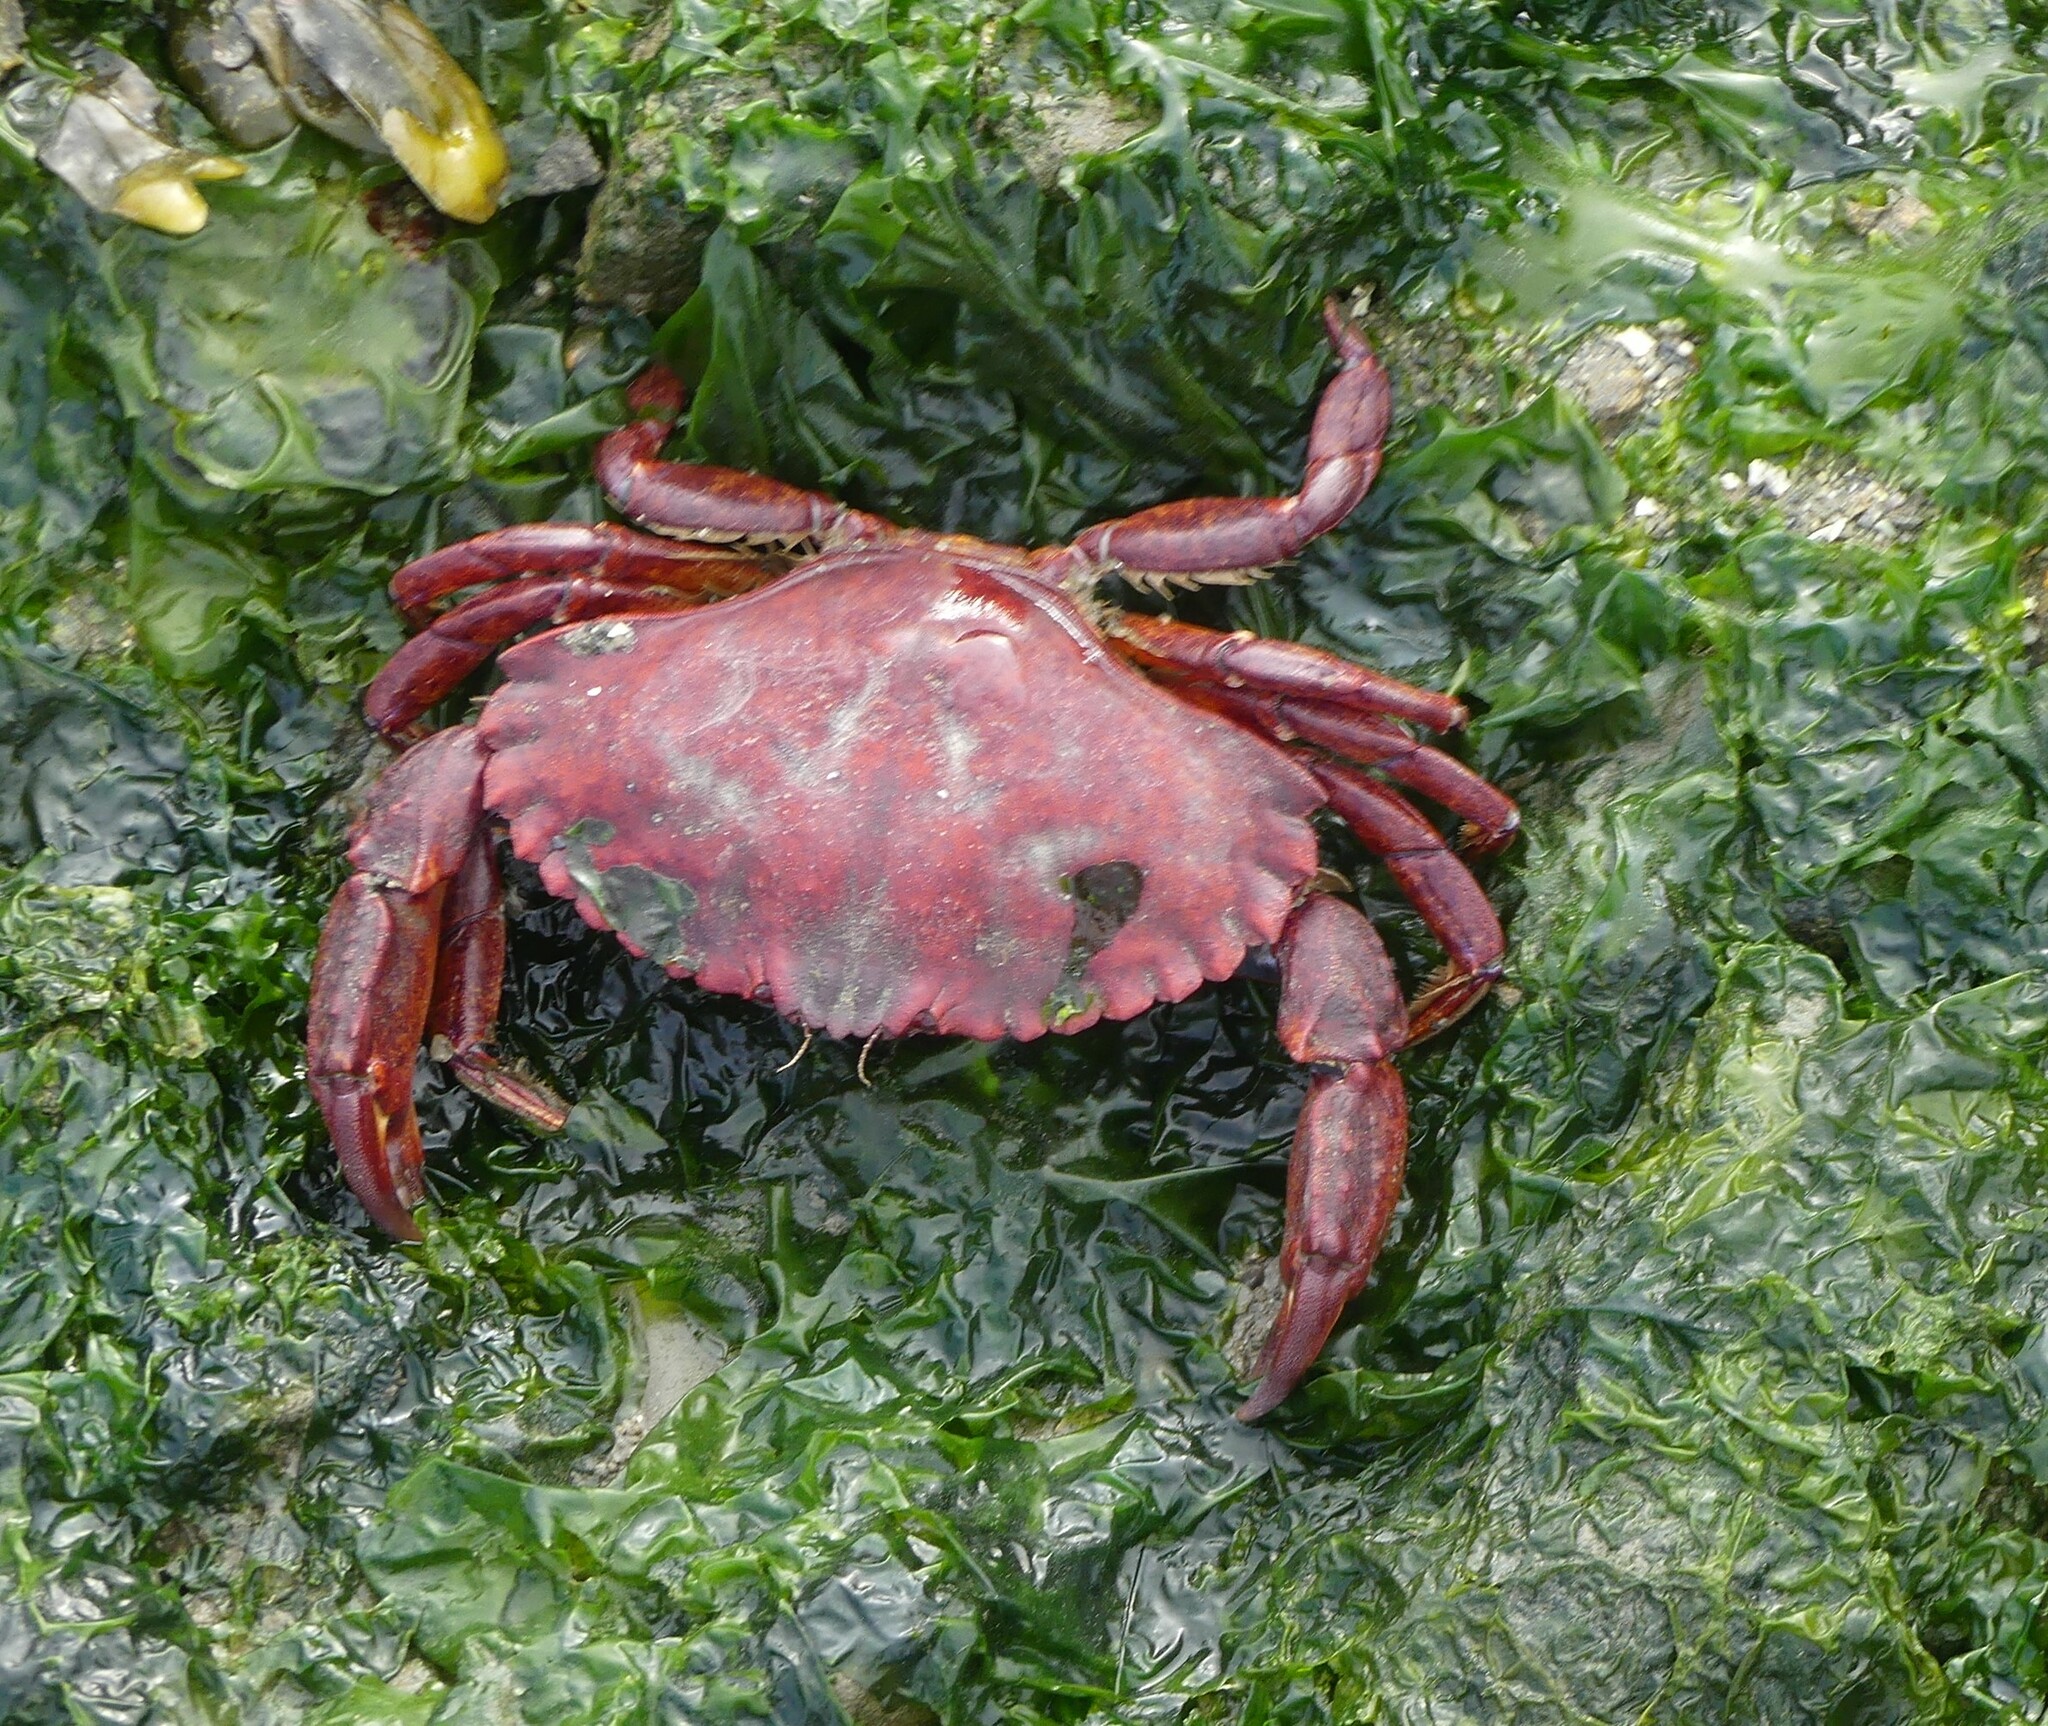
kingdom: Animalia
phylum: Arthropoda
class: Malacostraca
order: Decapoda
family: Cancridae
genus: Cancer
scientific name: Cancer productus
